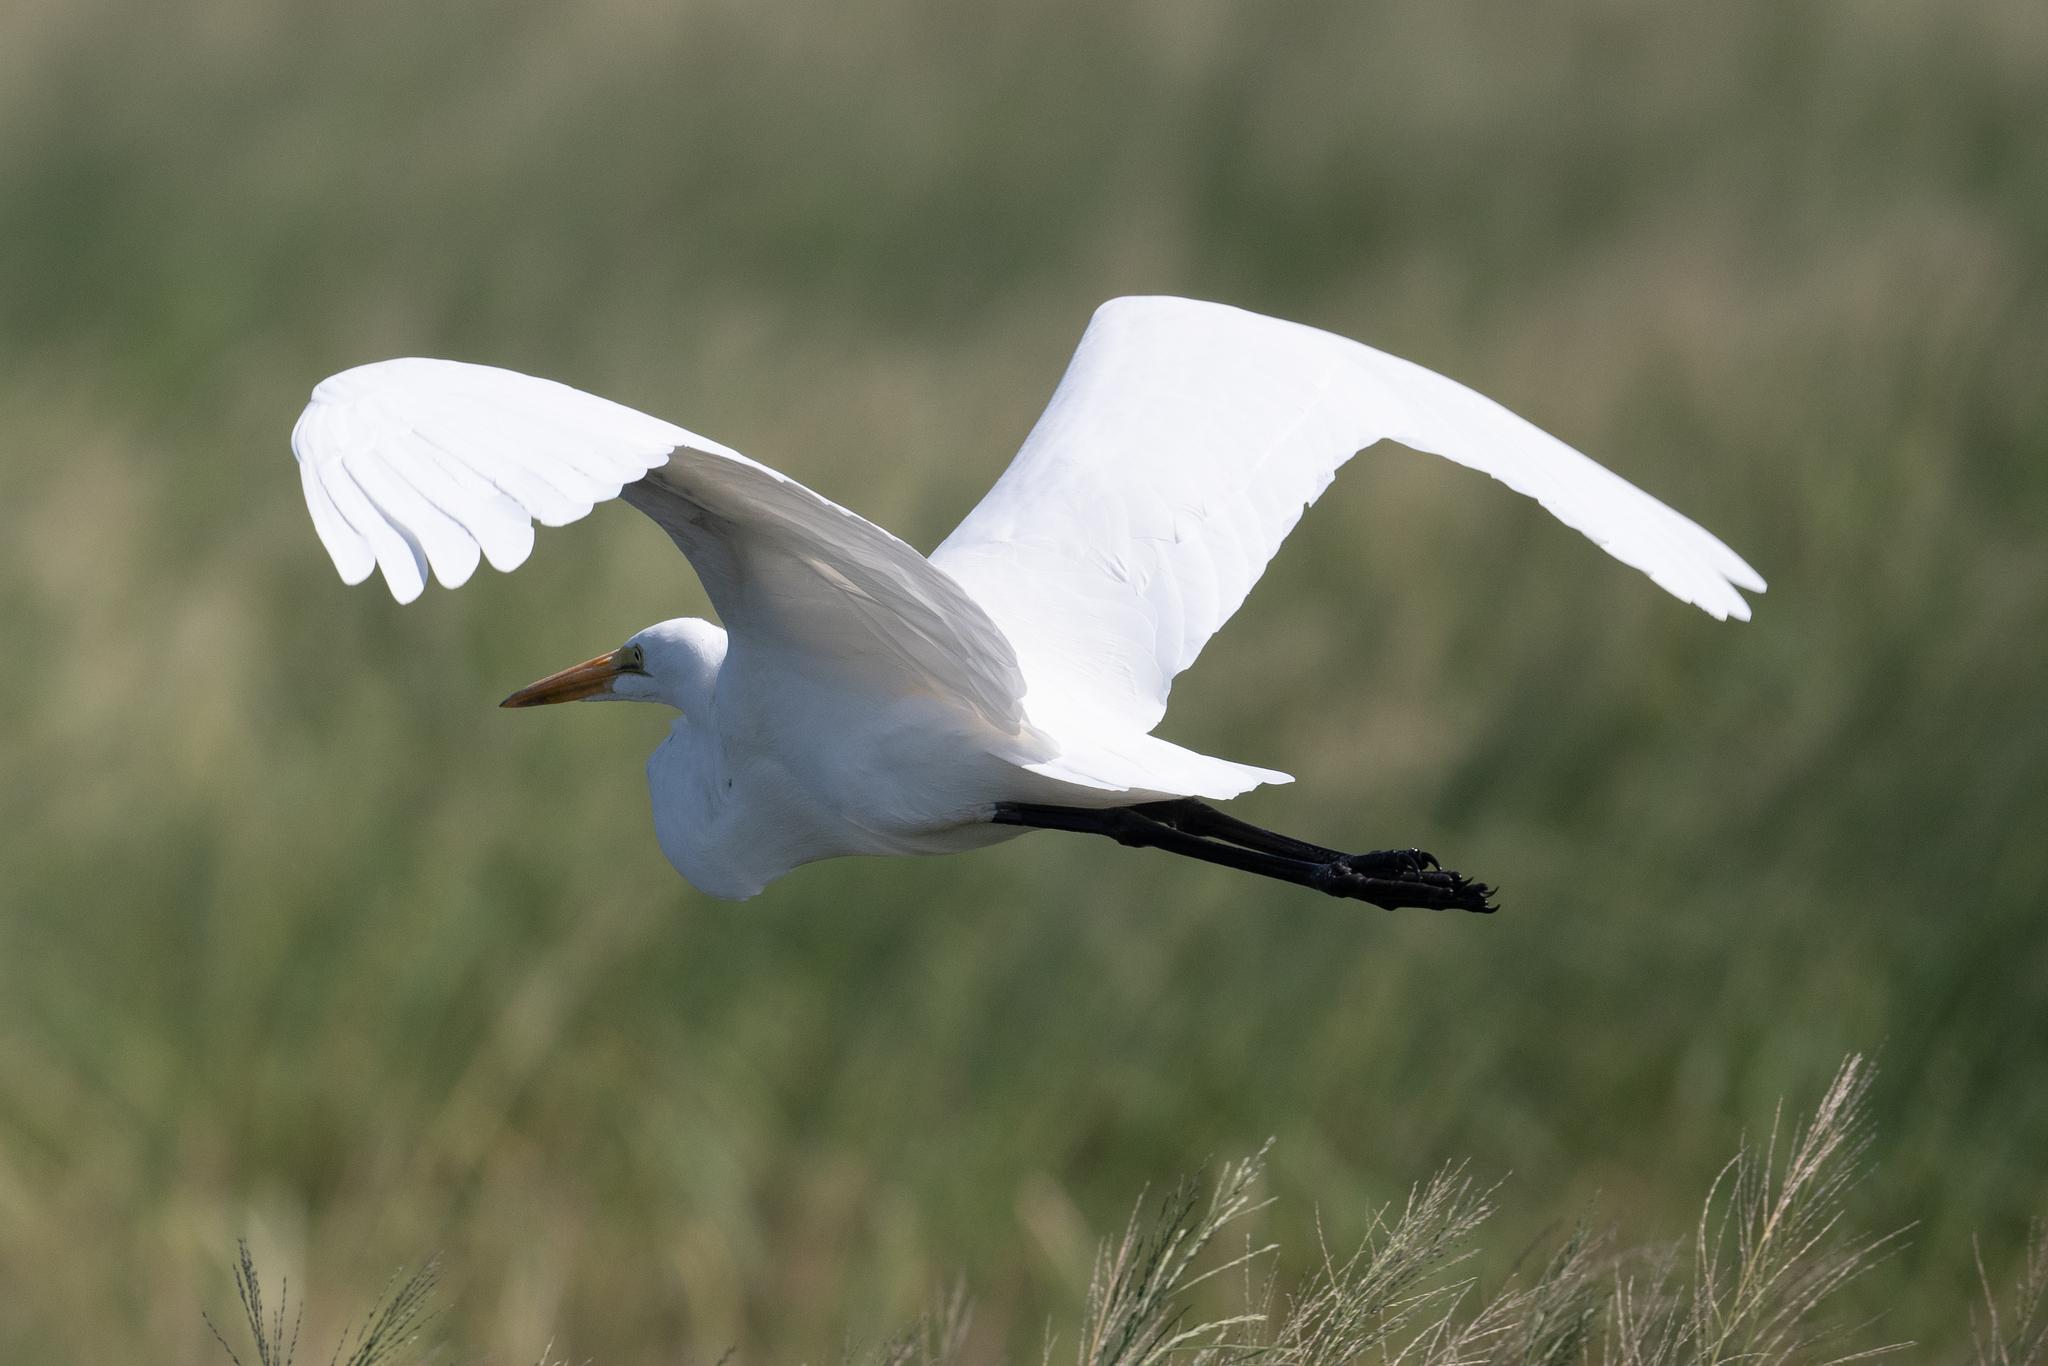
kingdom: Animalia
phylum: Chordata
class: Aves
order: Pelecaniformes
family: Ardeidae
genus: Ardea
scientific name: Ardea alba
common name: Great egret
